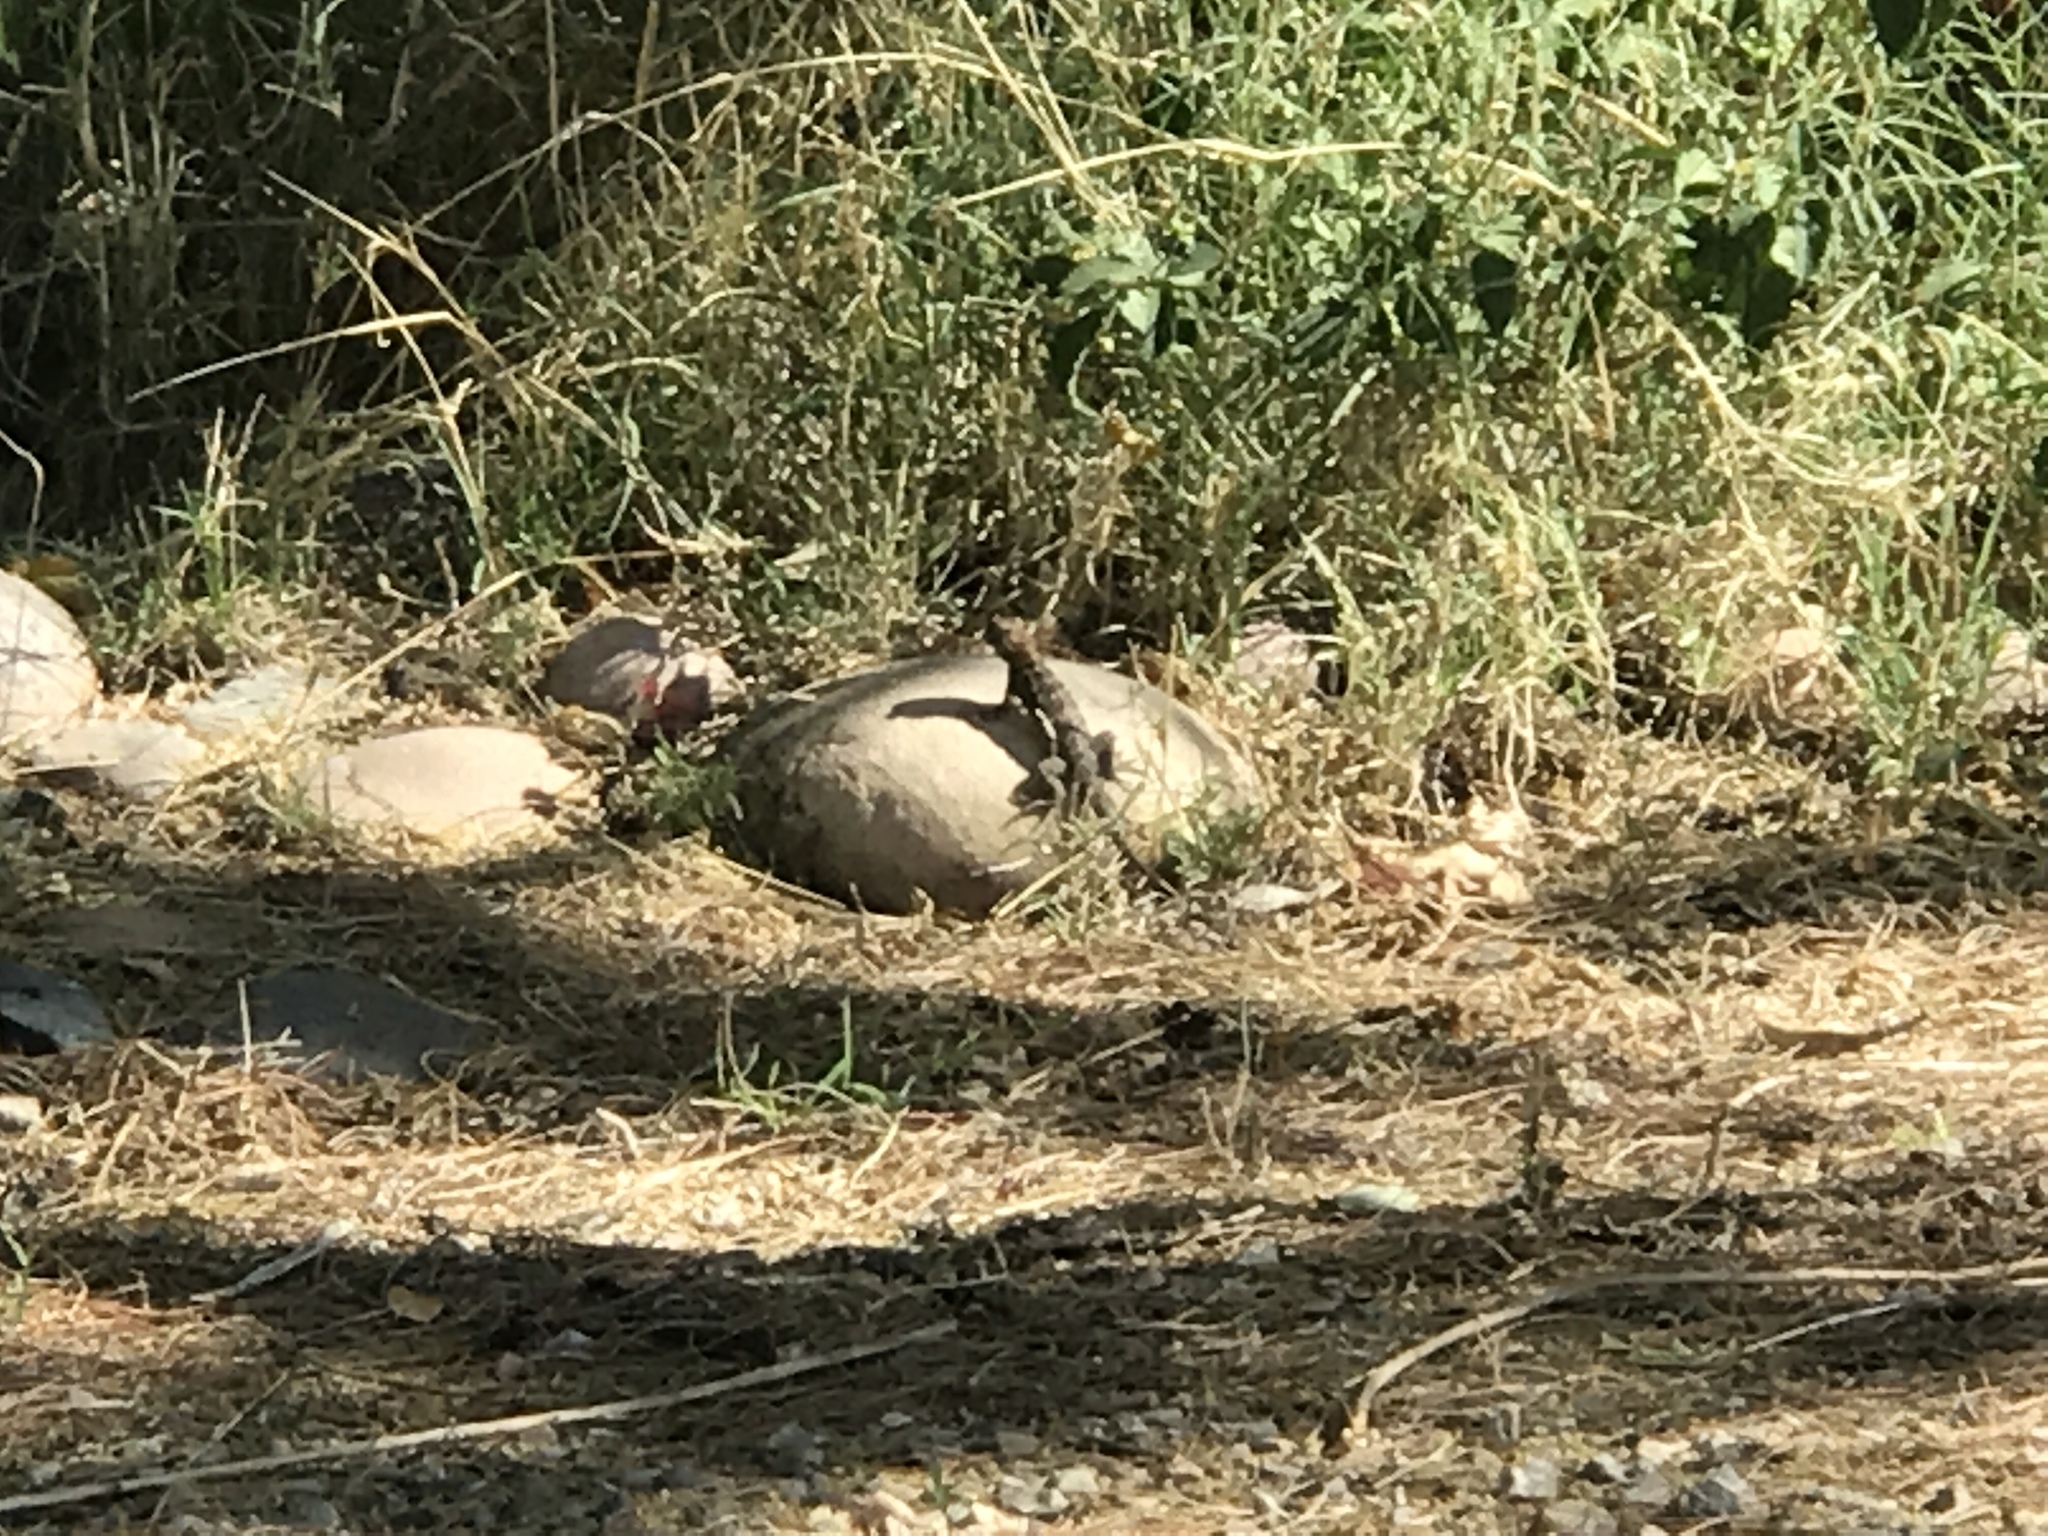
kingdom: Animalia
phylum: Chordata
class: Squamata
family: Phrynosomatidae
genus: Sceloporus
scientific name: Sceloporus magister
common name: Desert spiny lizard
